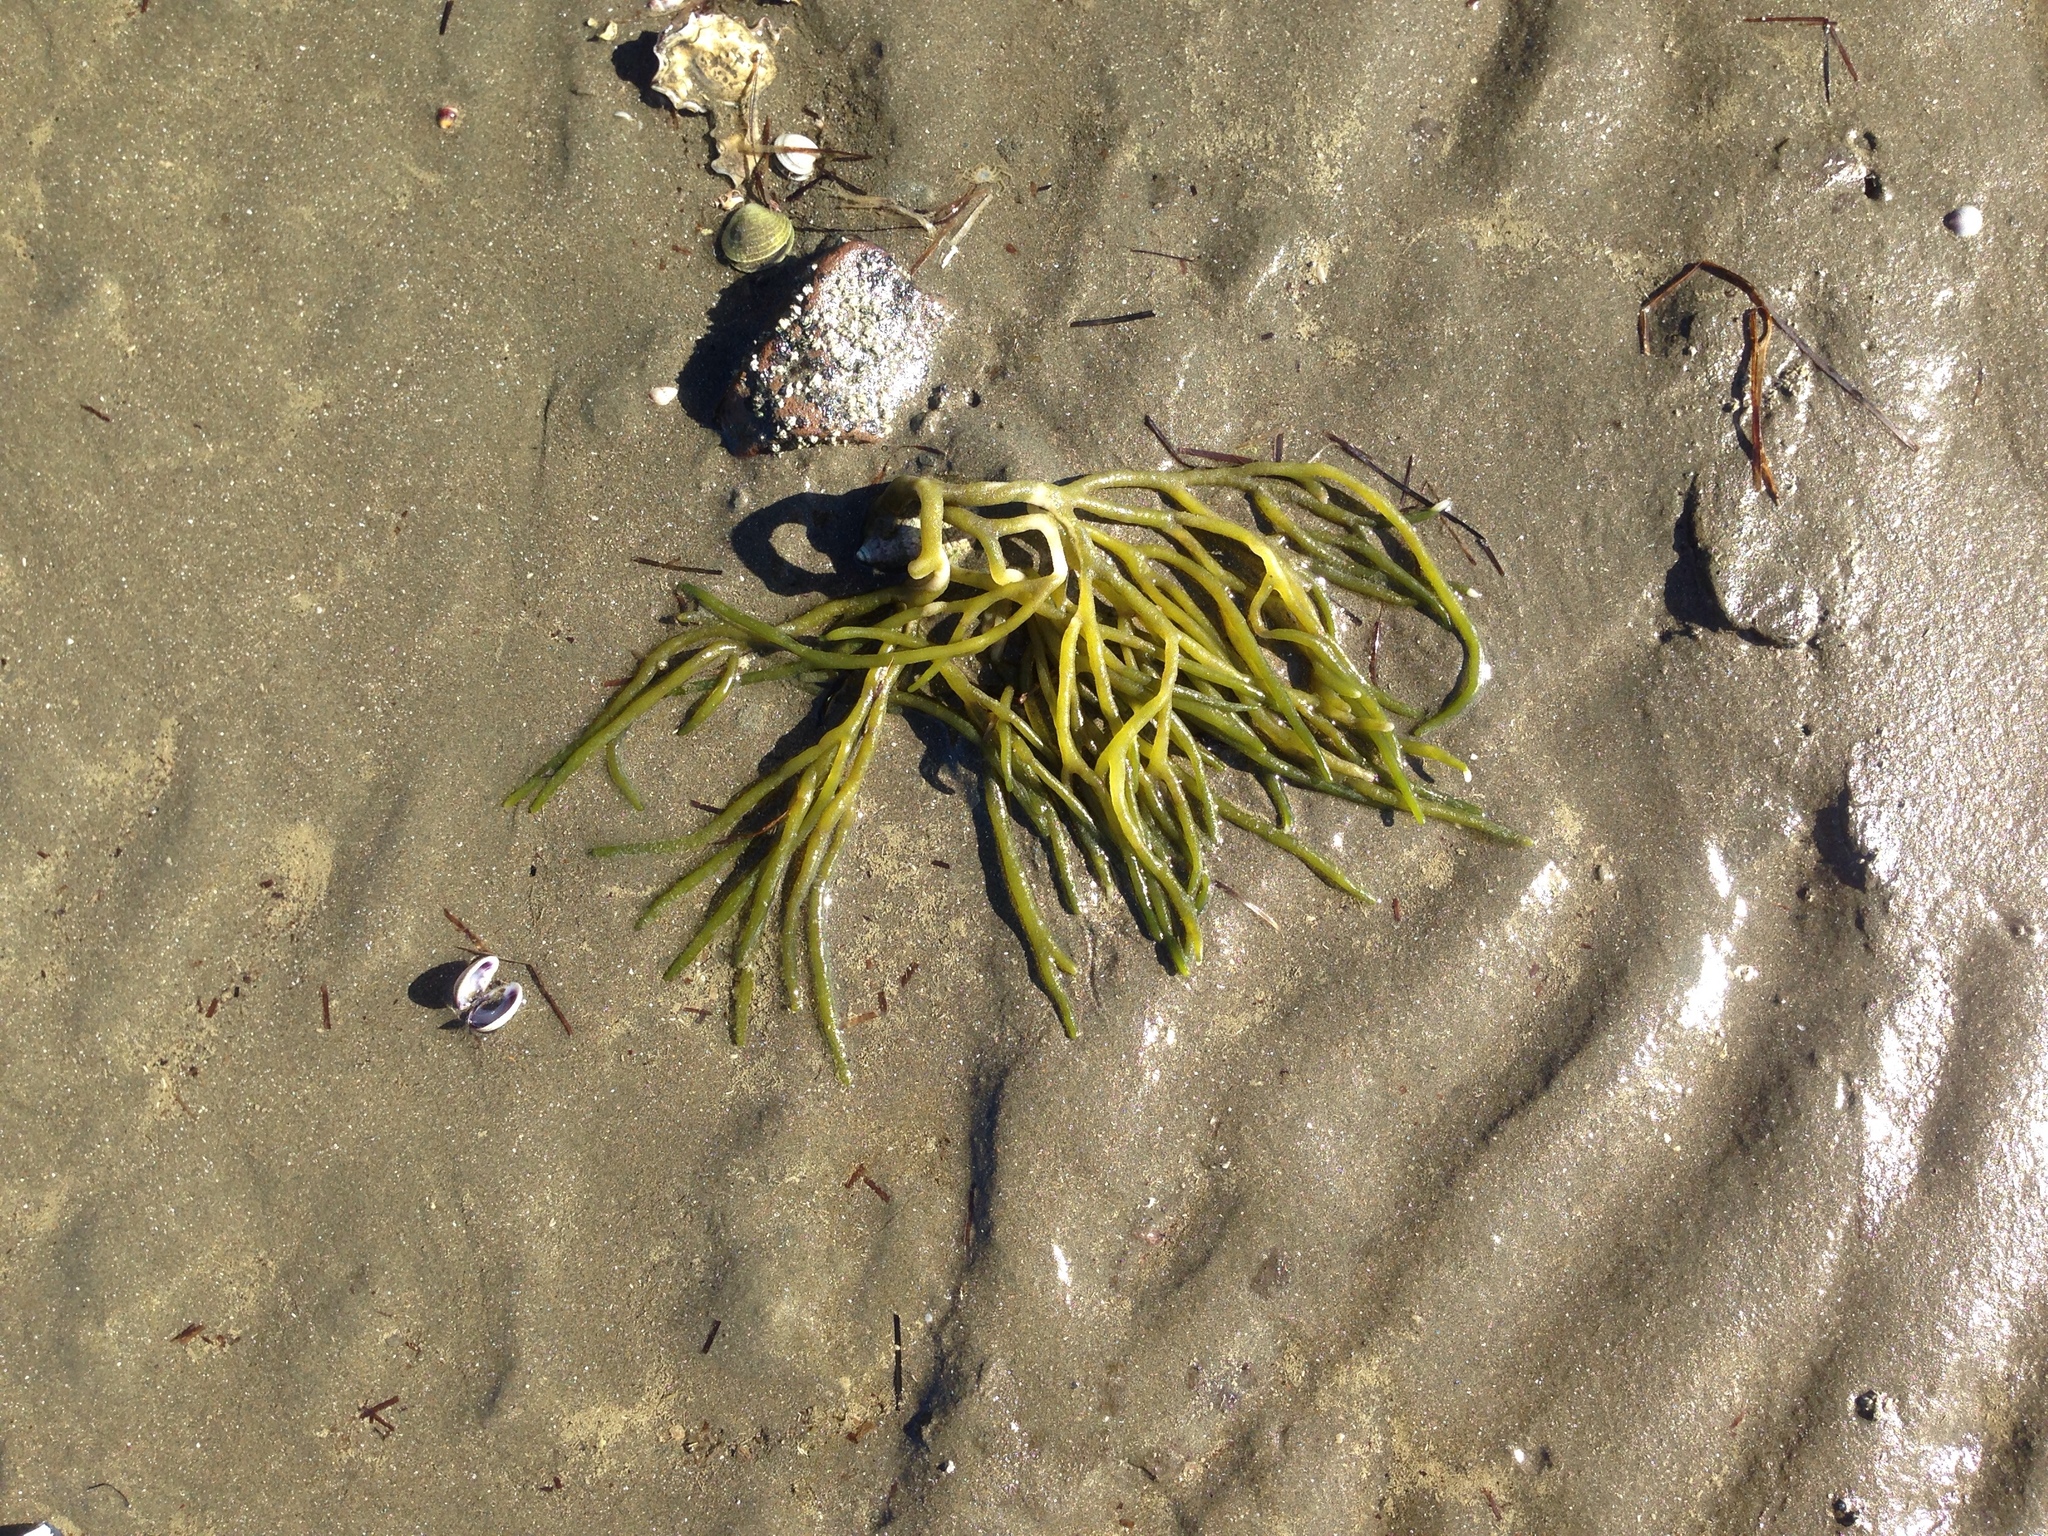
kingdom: Plantae
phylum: Chlorophyta
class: Ulvophyceae
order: Bryopsidales
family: Codiaceae
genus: Codium
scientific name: Codium fragile
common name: Dead man's fingers
